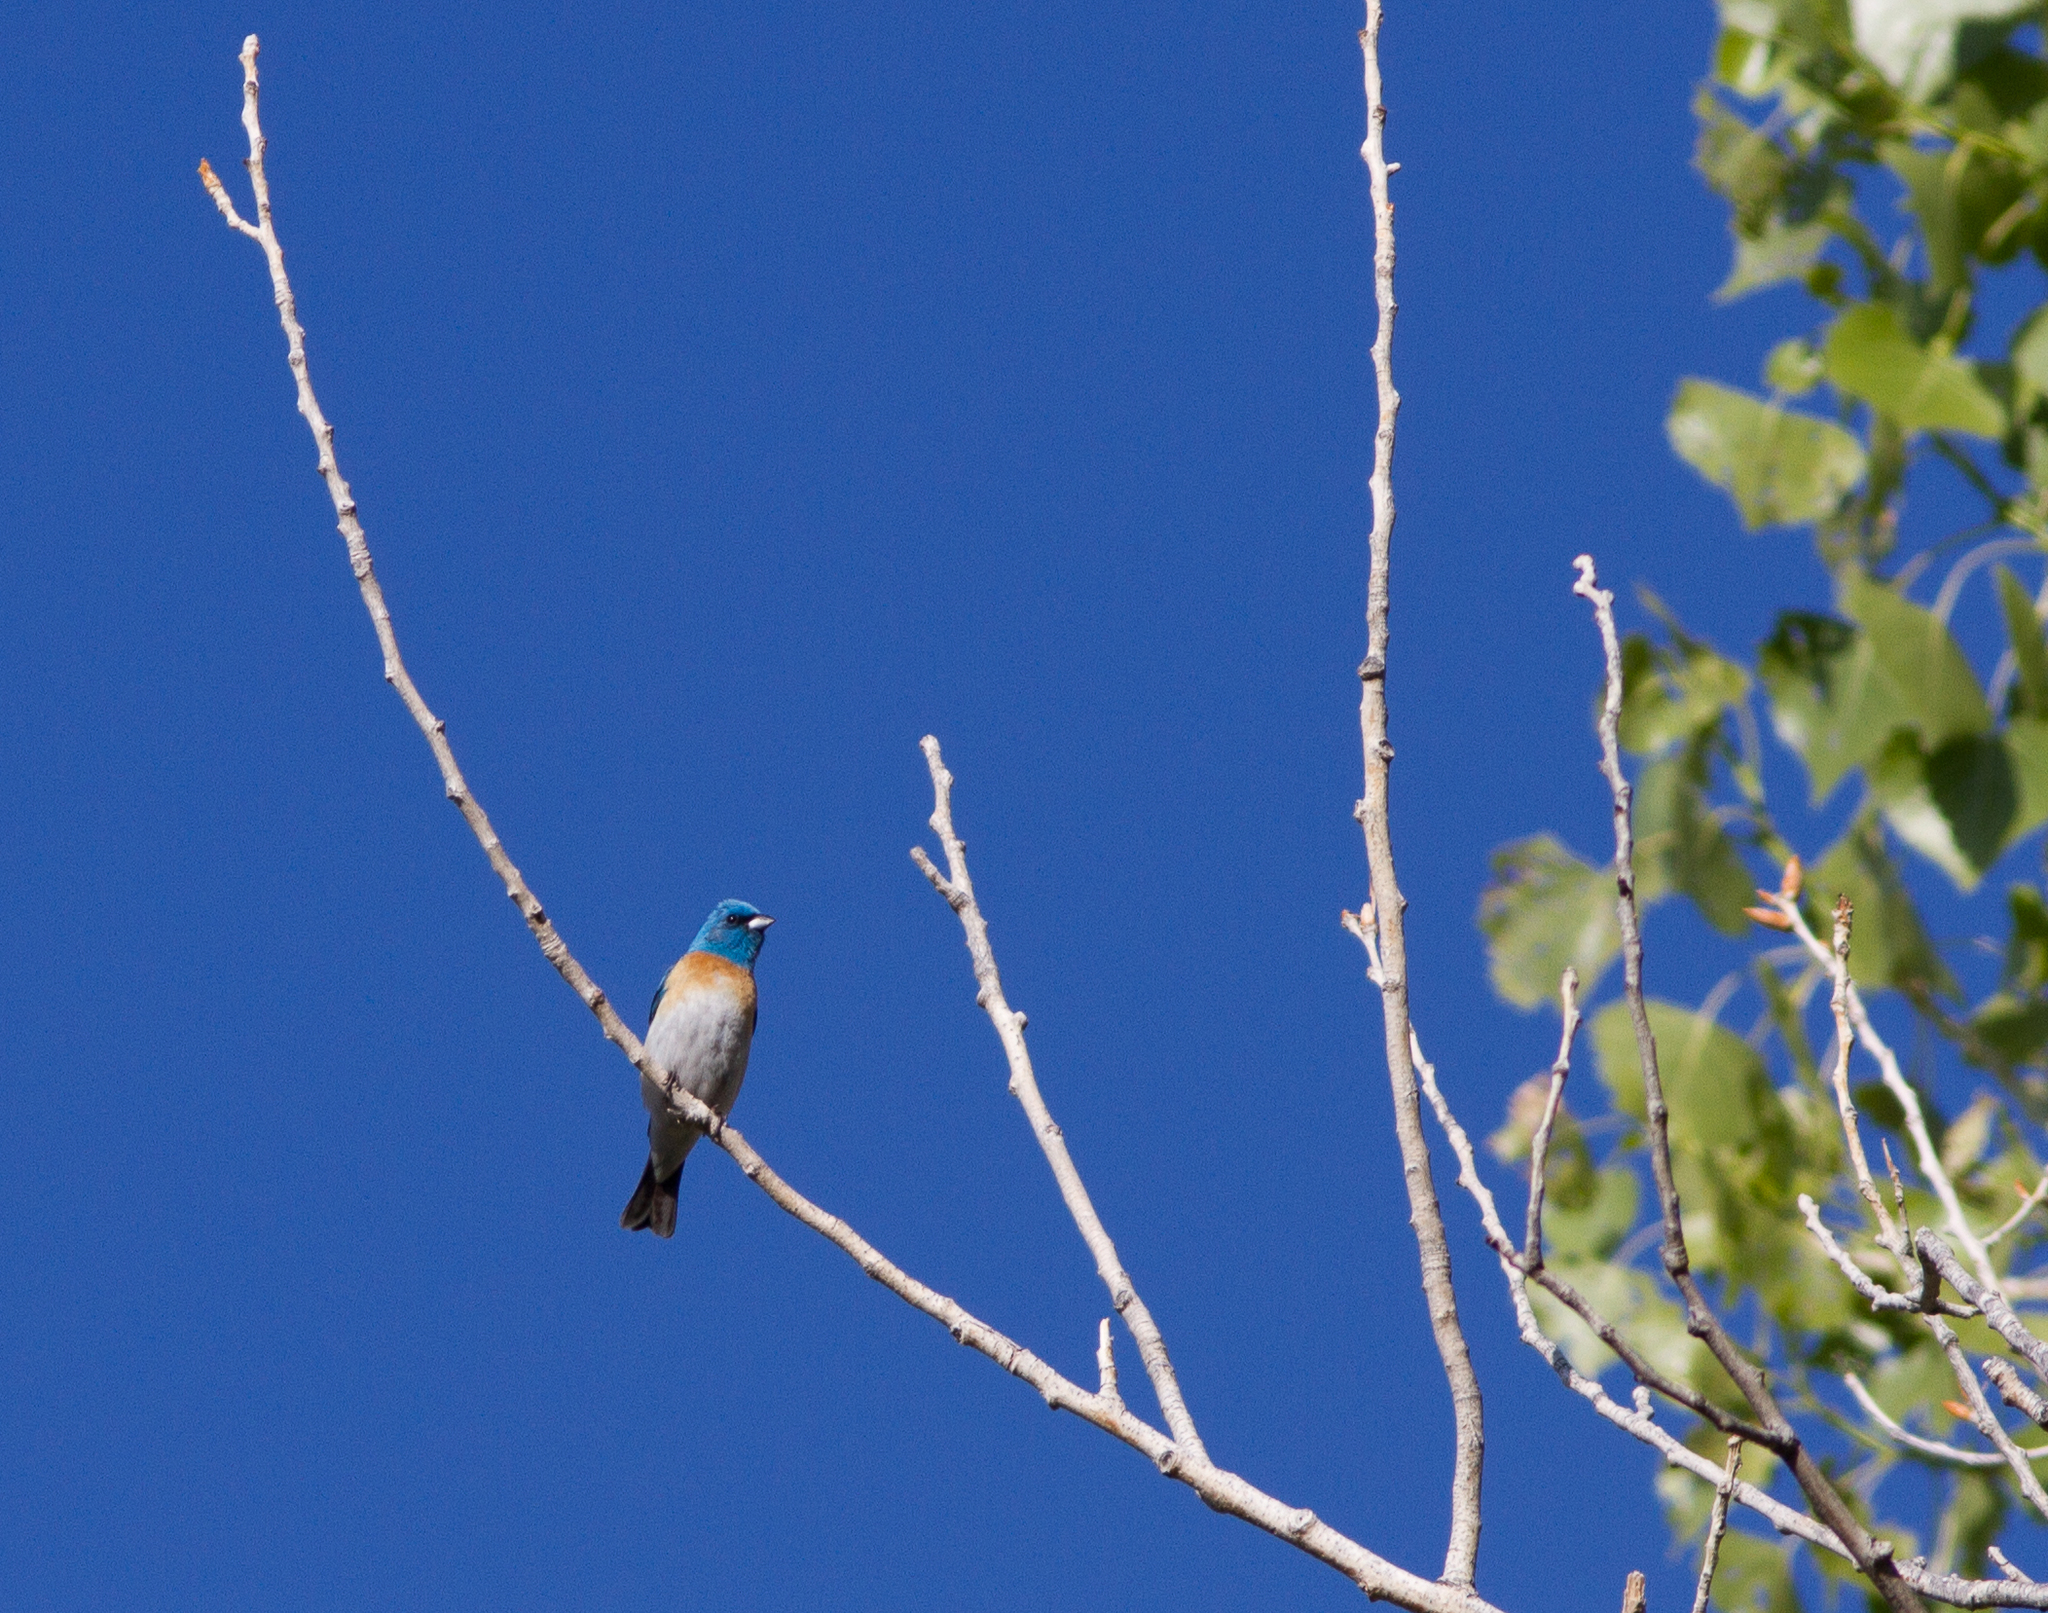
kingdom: Animalia
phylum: Chordata
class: Aves
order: Passeriformes
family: Cardinalidae
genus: Passerina
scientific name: Passerina amoena
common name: Lazuli bunting
